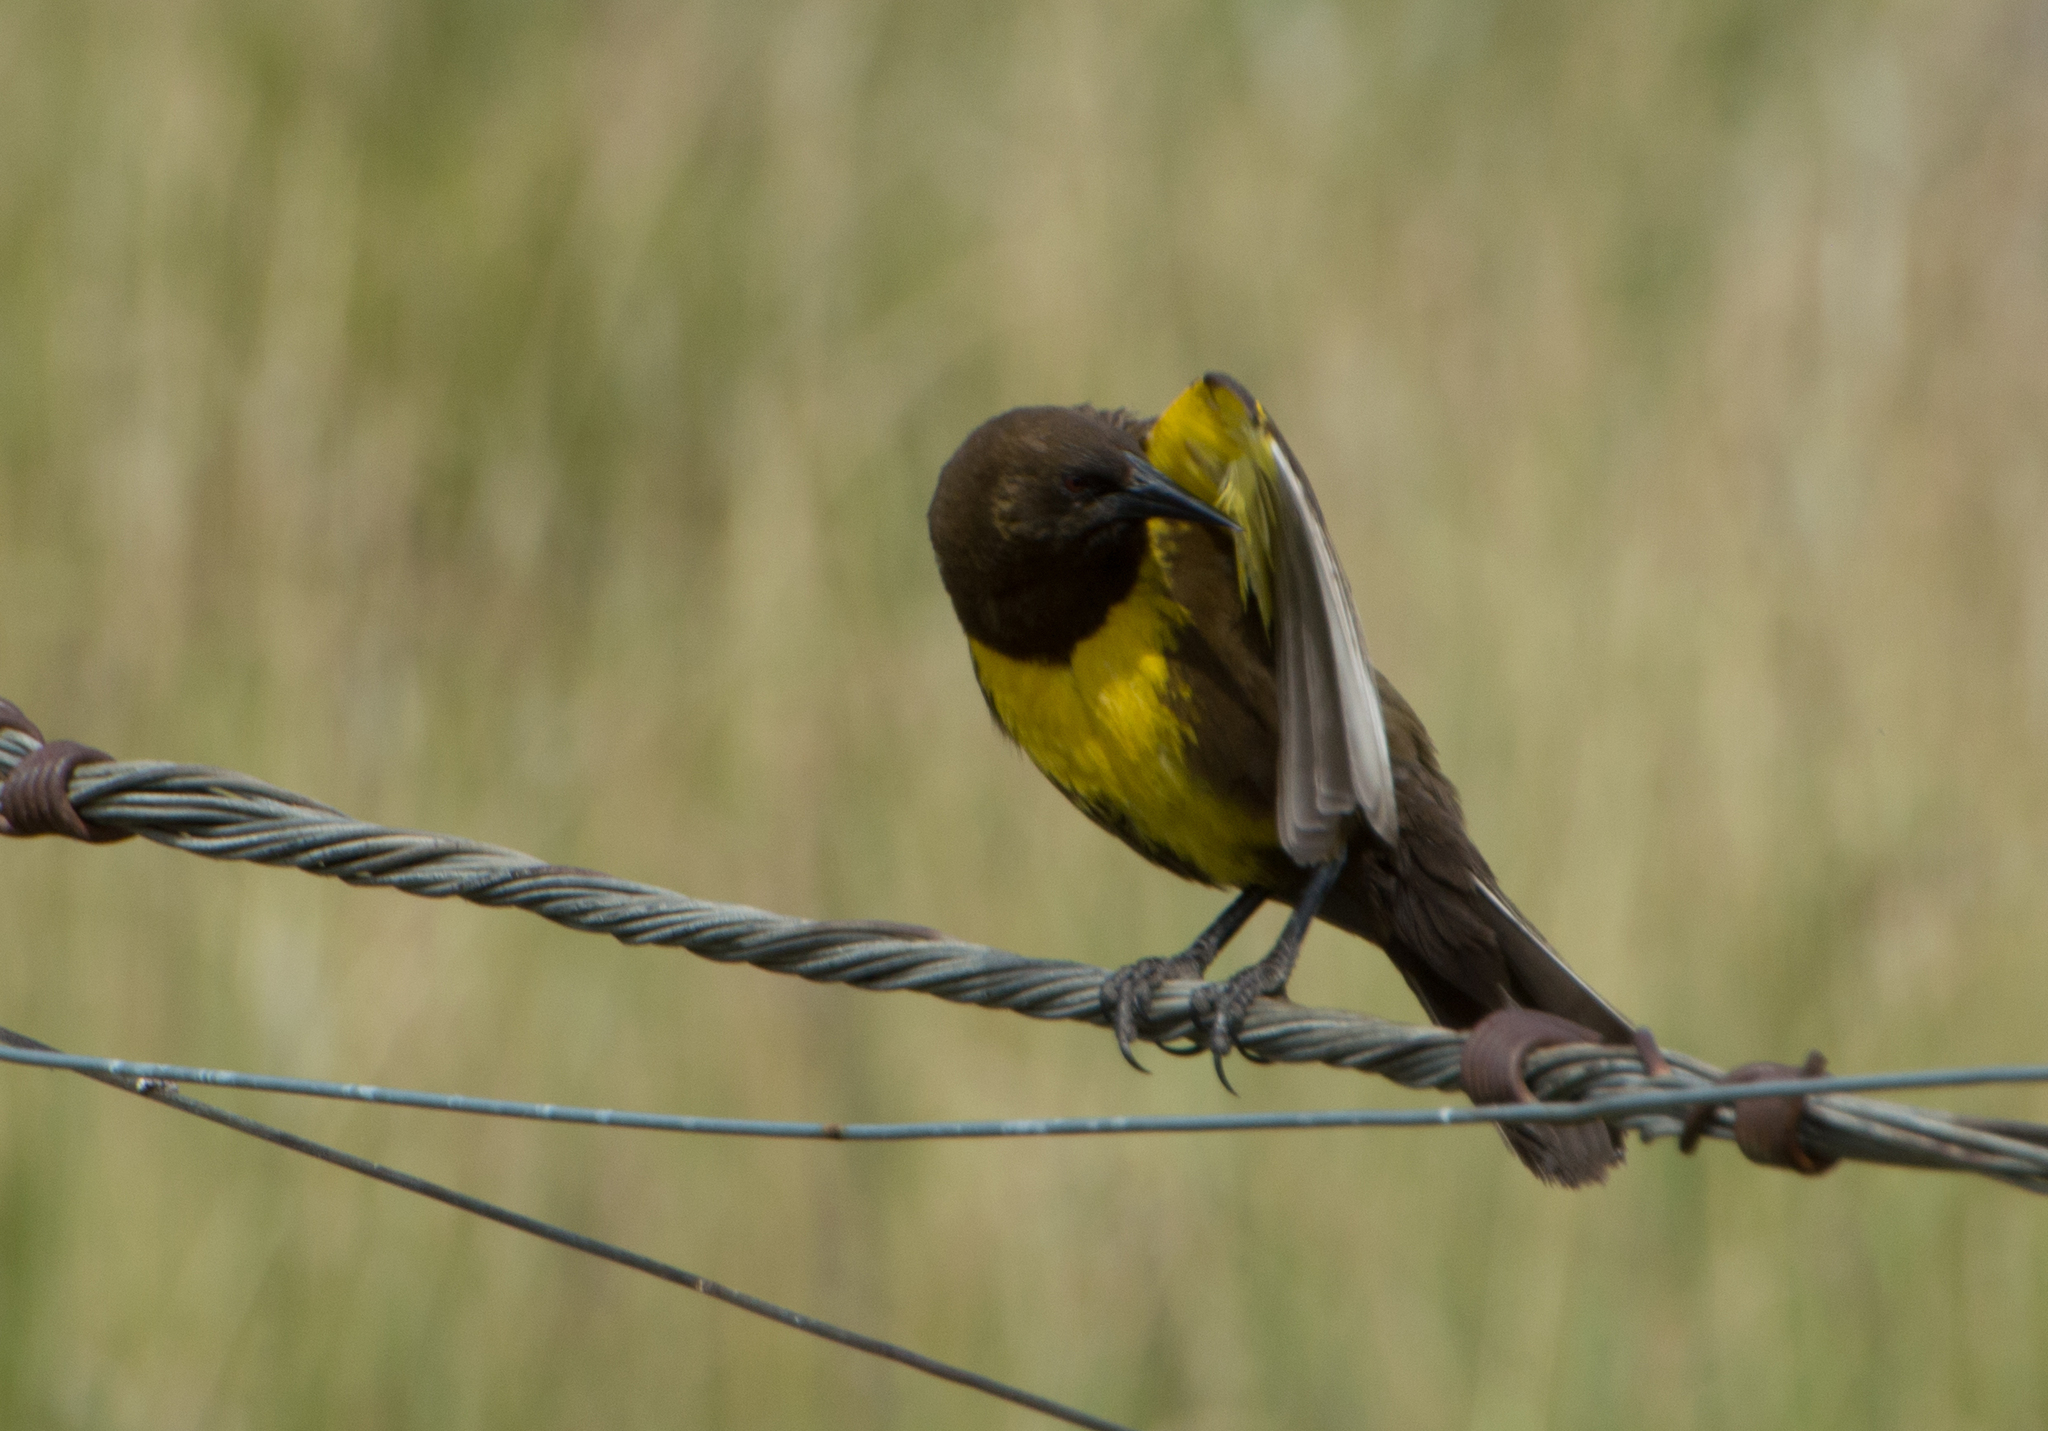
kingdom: Animalia
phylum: Chordata
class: Aves
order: Passeriformes
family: Icteridae
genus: Pseudoleistes
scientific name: Pseudoleistes virescens
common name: Brown-and-yellow marshbird
